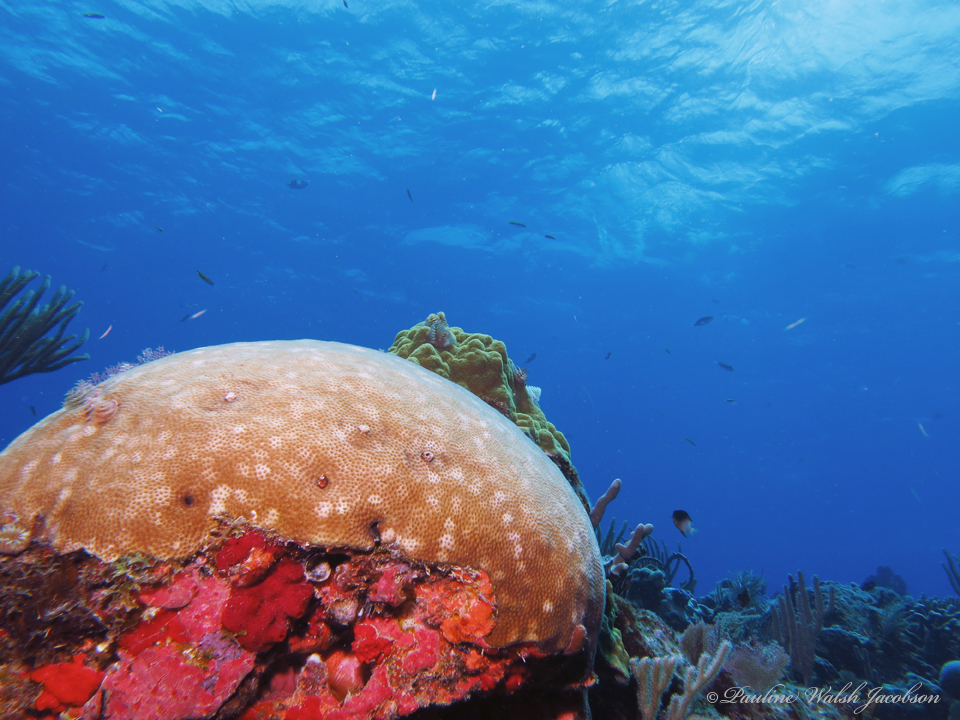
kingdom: Animalia
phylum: Cnidaria
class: Anthozoa
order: Scleractinia
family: Rhizangiidae
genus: Siderastrea
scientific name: Siderastrea siderea
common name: Massive starlet coral
